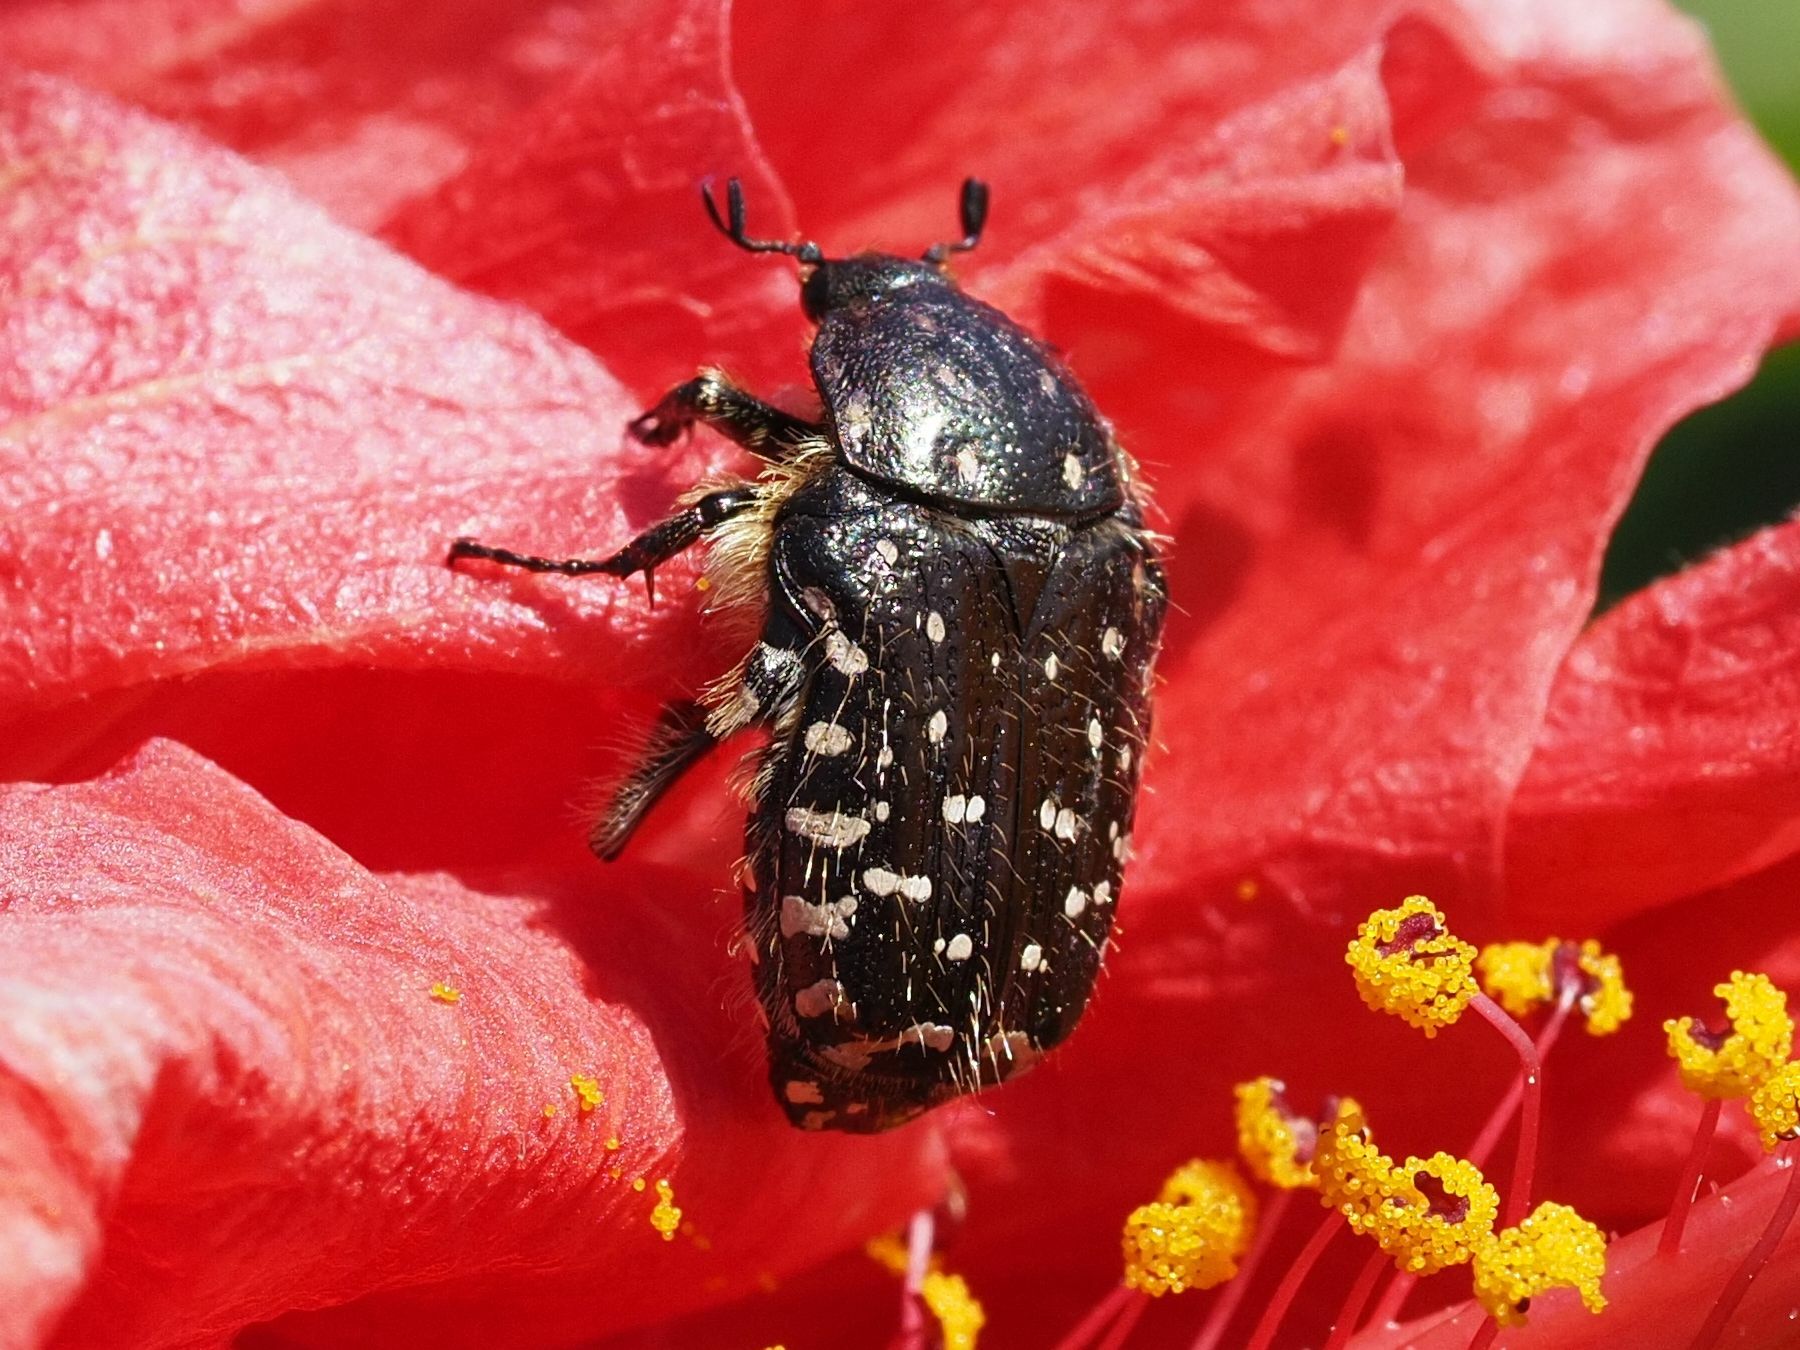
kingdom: Animalia
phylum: Arthropoda
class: Insecta
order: Coleoptera
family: Scarabaeidae
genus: Oxythyrea
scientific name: Oxythyrea funesta
